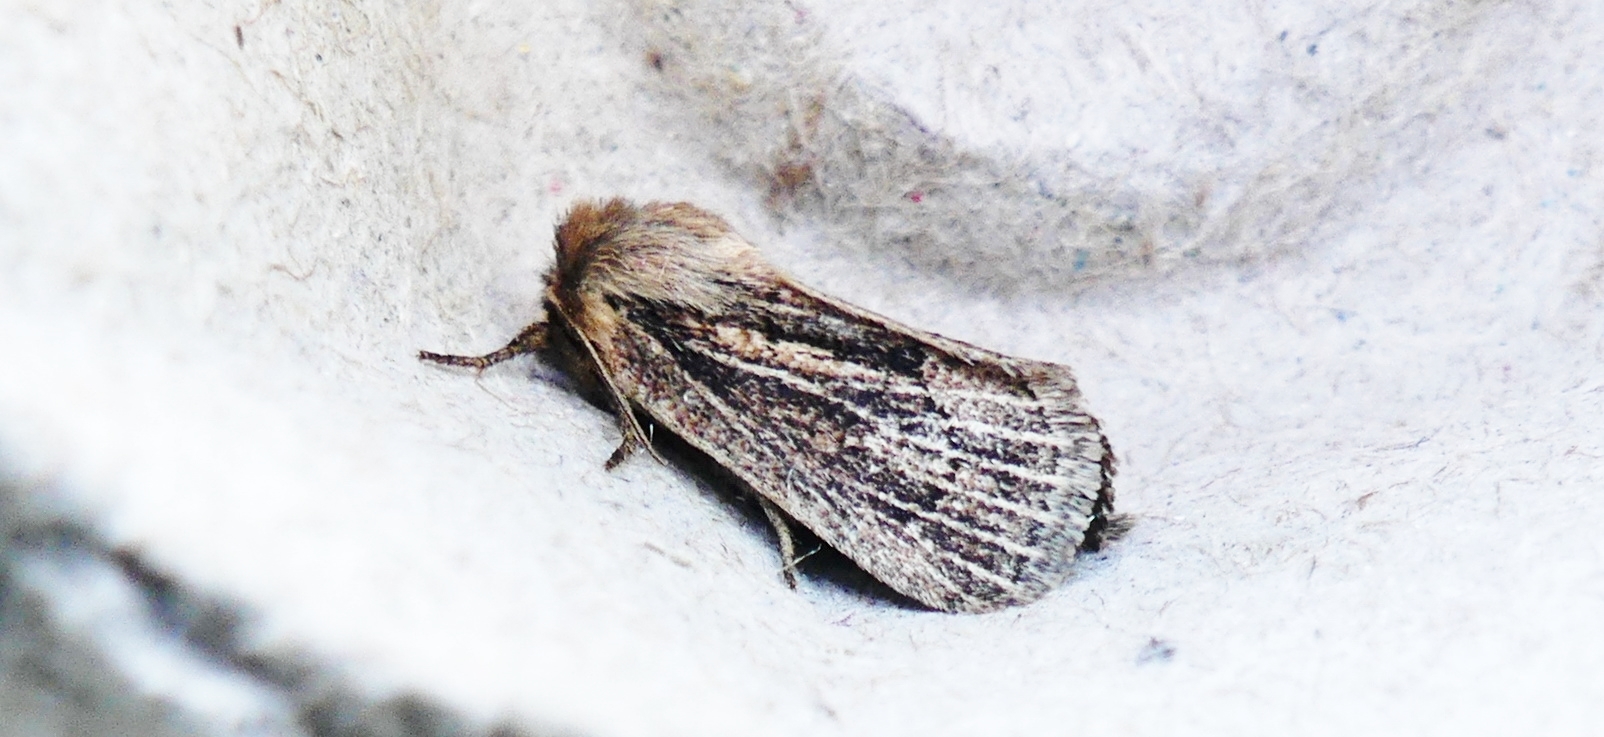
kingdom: Animalia
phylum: Arthropoda
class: Insecta
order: Lepidoptera
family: Noctuidae
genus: Hypocoena
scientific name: Hypocoena inquinata
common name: Tufted sedge moth
